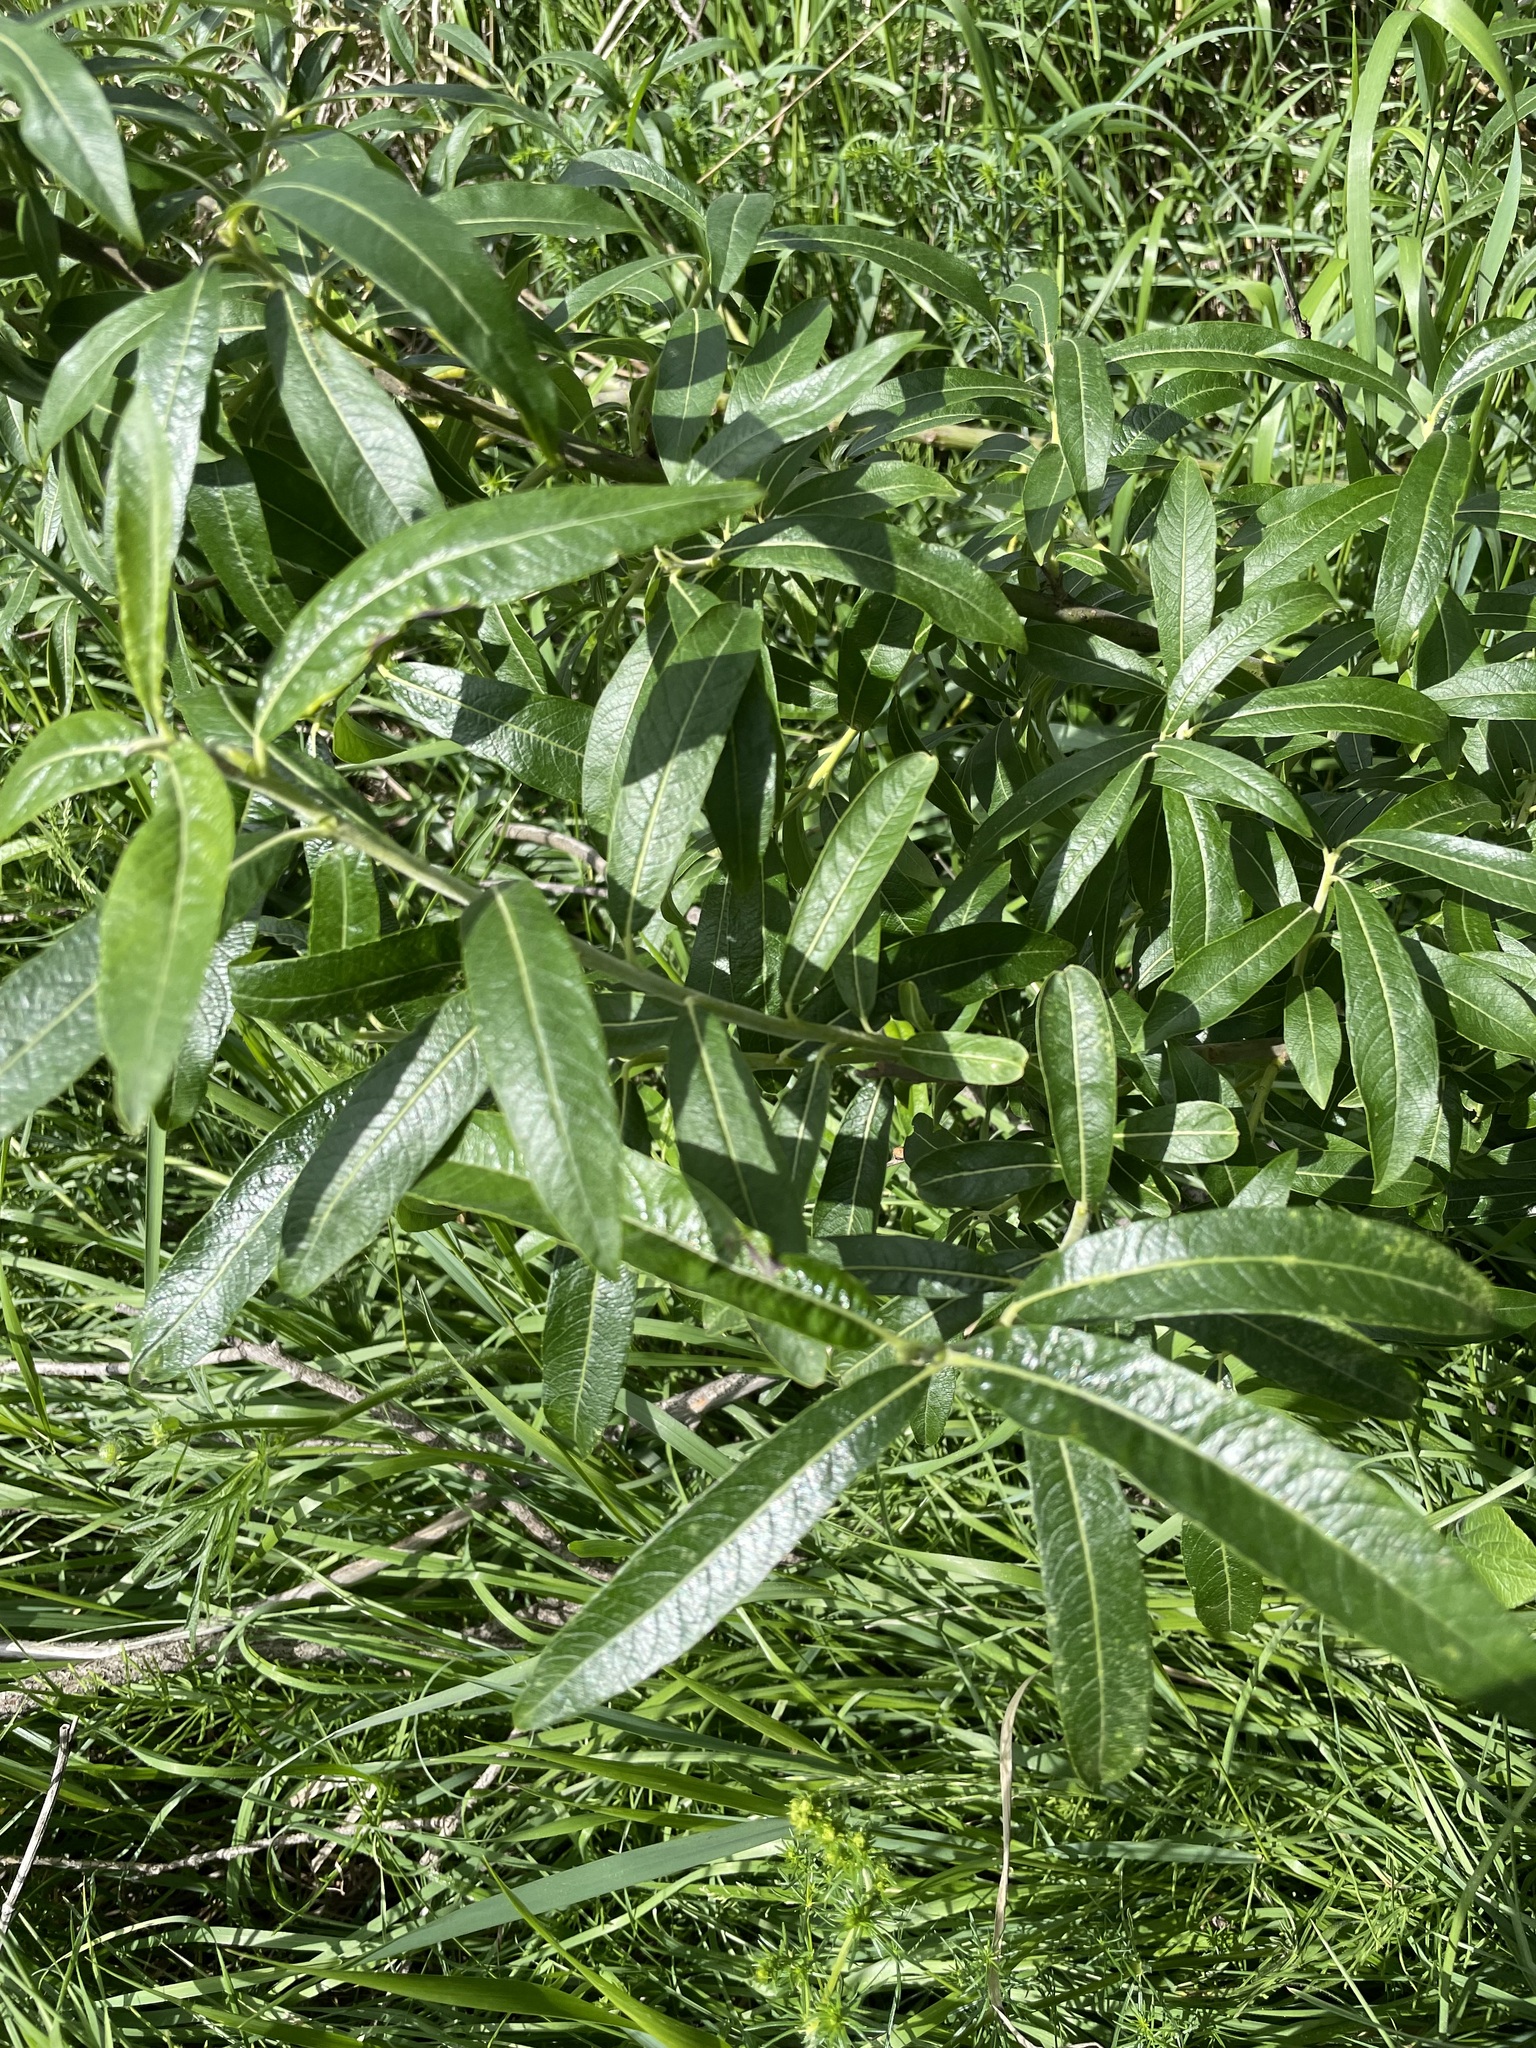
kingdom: Plantae
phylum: Tracheophyta
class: Magnoliopsida
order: Malpighiales
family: Salicaceae
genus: Salix
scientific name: Salix gmelinii
